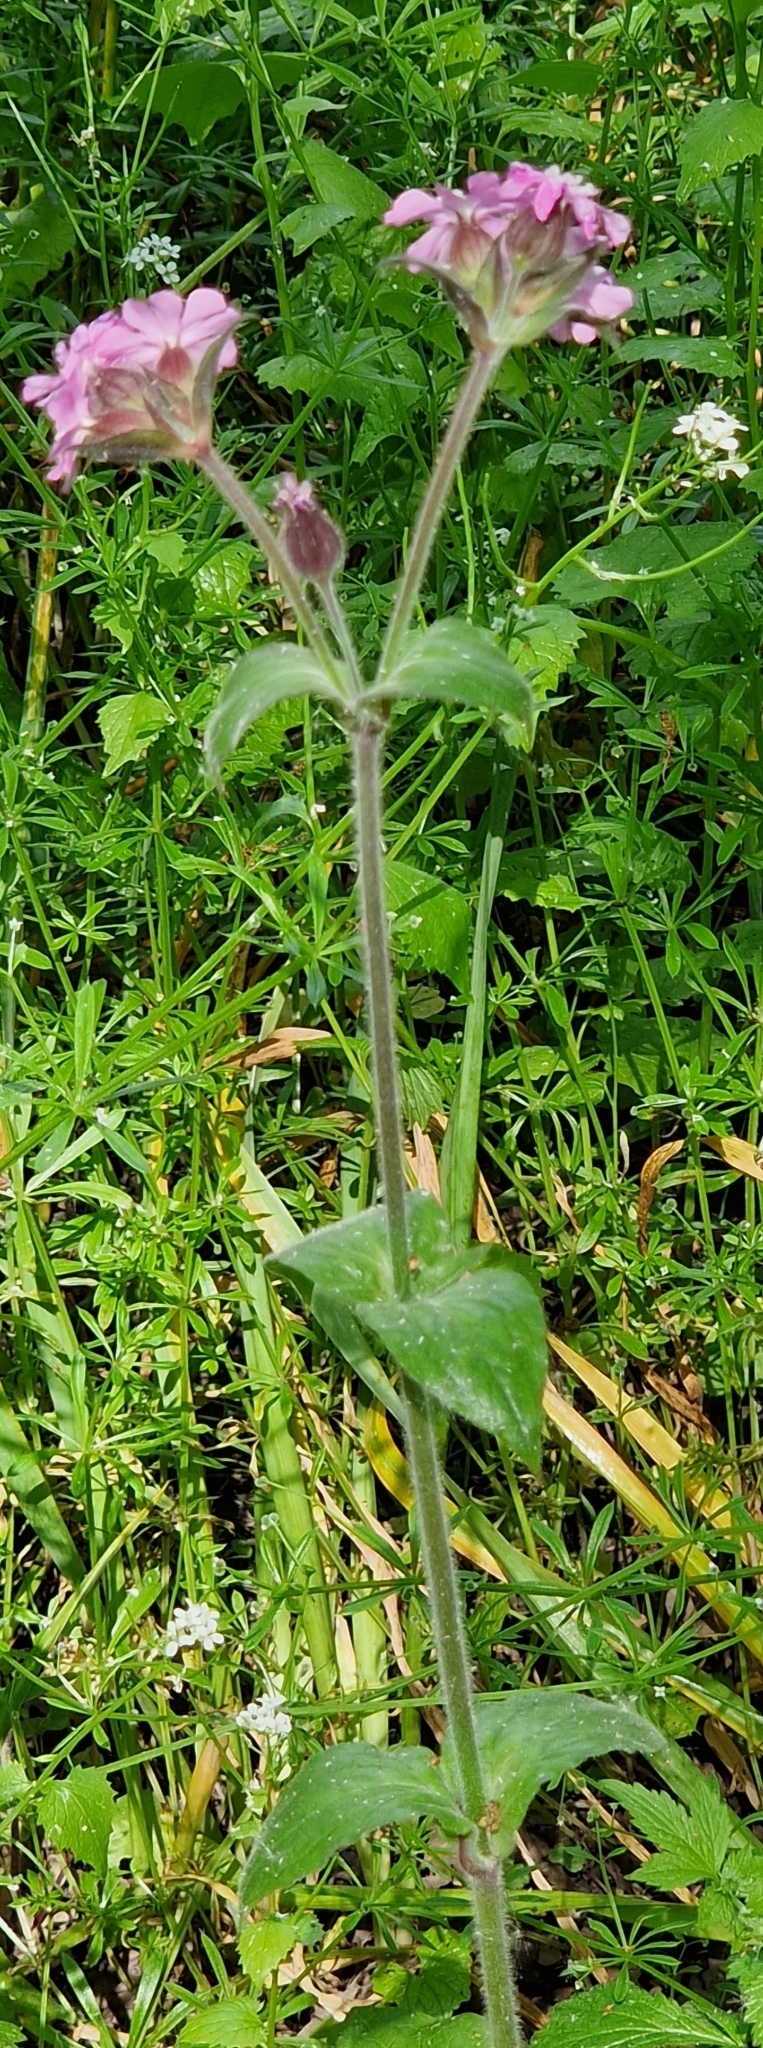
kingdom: Plantae
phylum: Tracheophyta
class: Magnoliopsida
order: Caryophyllales
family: Caryophyllaceae
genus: Silene
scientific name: Silene dioica
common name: Red campion
